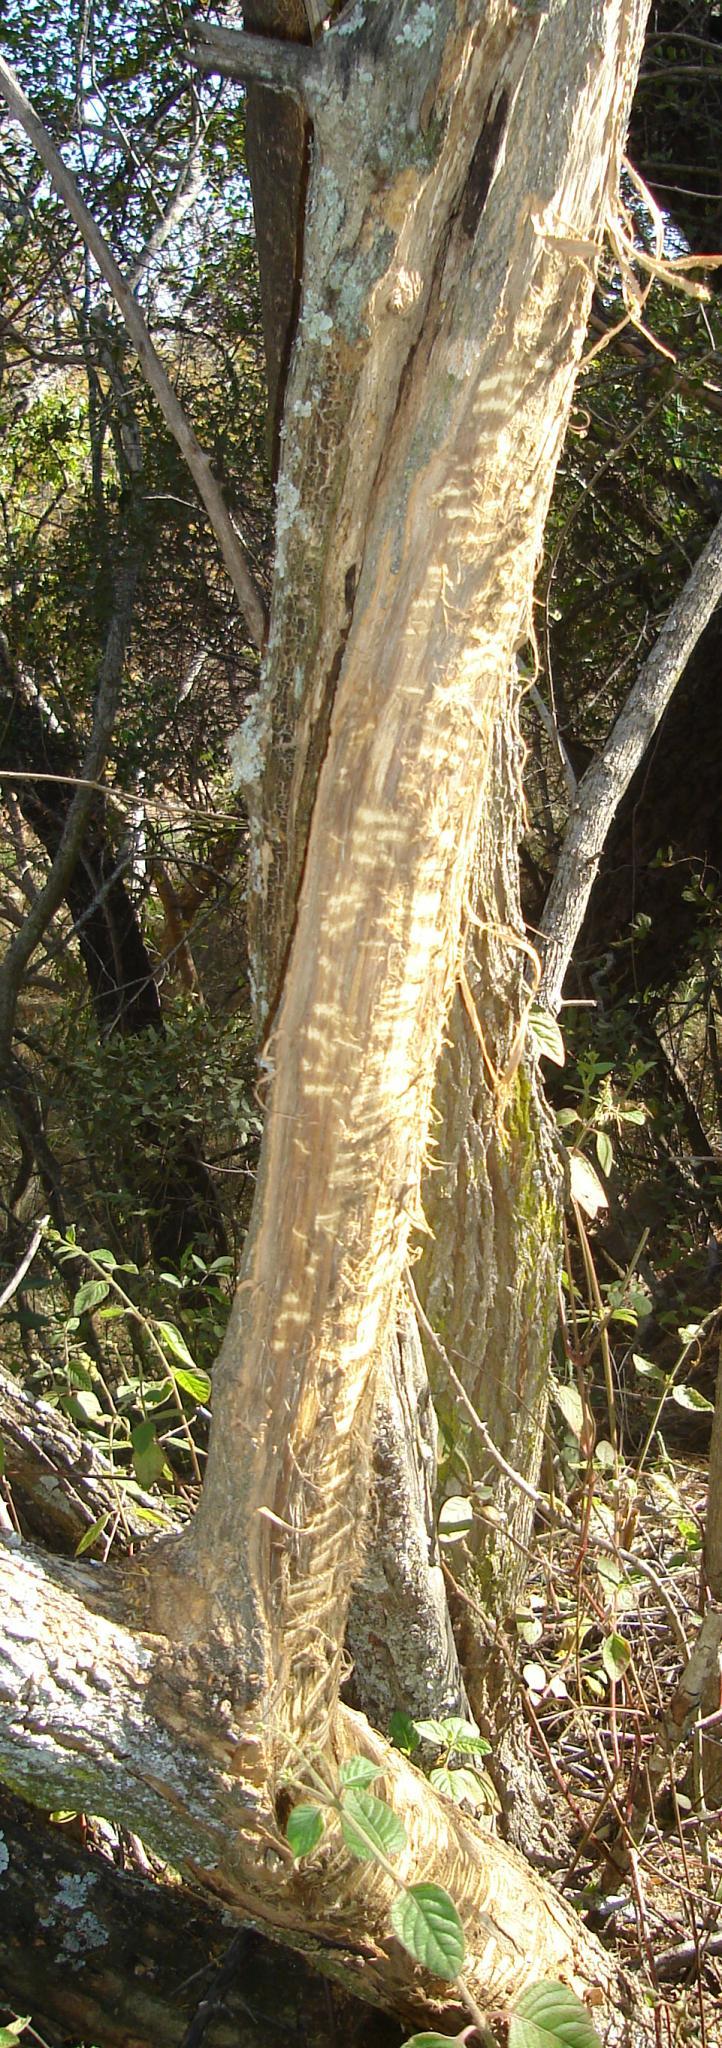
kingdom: Animalia
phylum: Chordata
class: Mammalia
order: Primates
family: Cercopithecidae
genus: Papio
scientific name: Papio ursinus
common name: Chacma baboon
